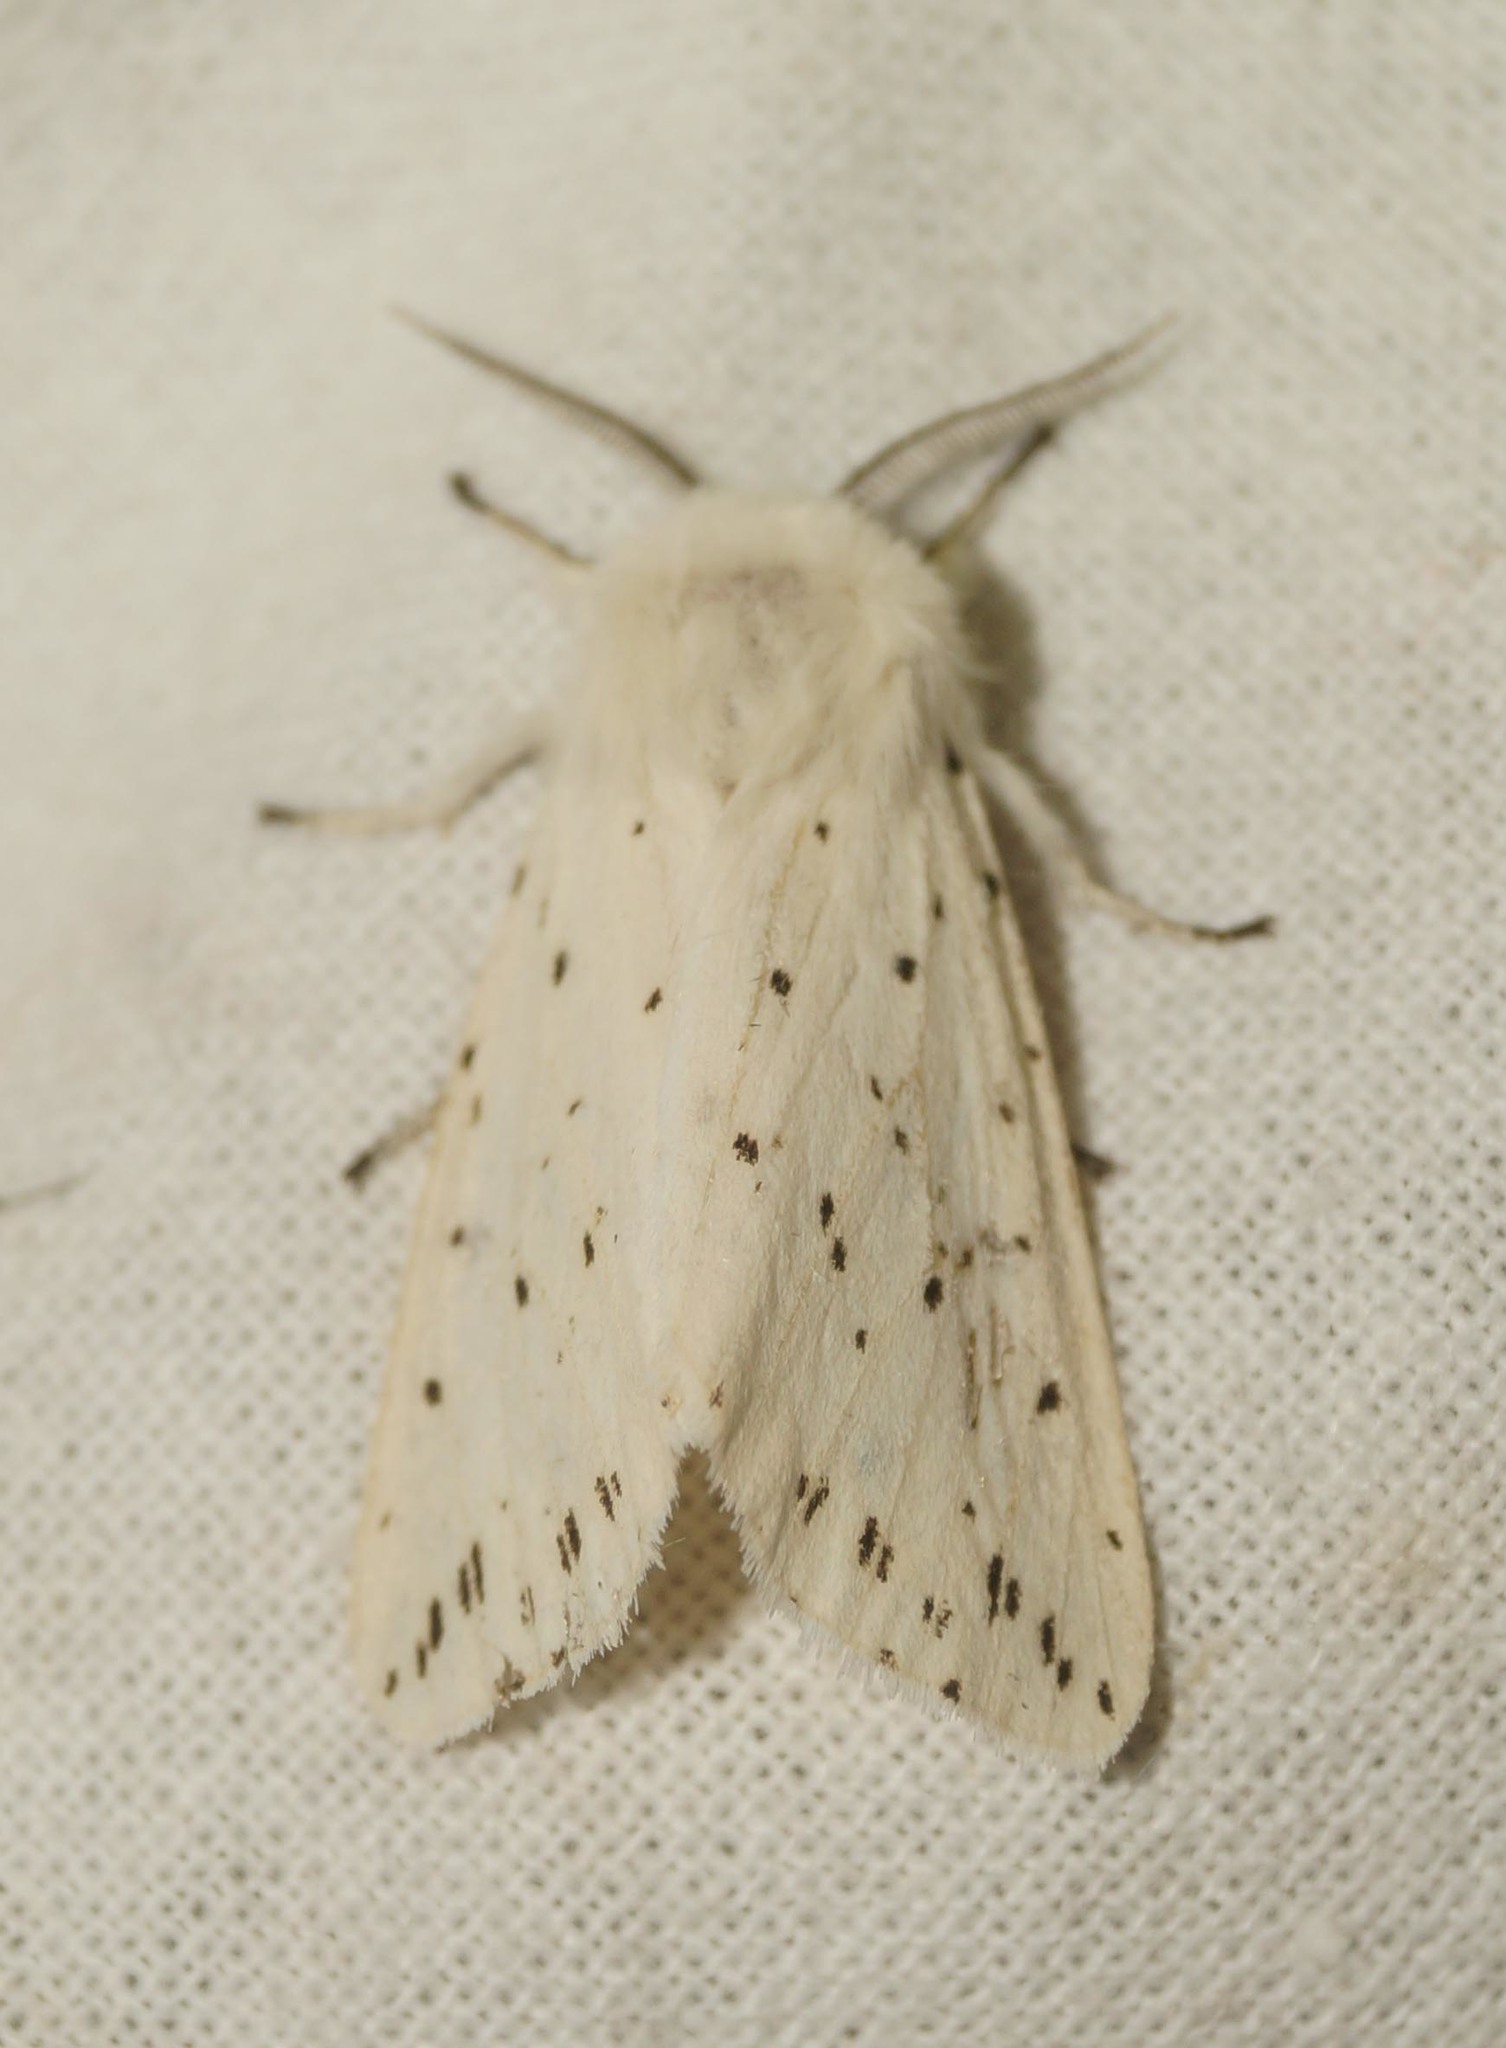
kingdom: Animalia
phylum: Arthropoda
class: Insecta
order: Lepidoptera
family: Erebidae
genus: Spilosoma
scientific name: Spilosoma lubricipeda
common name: White ermine
